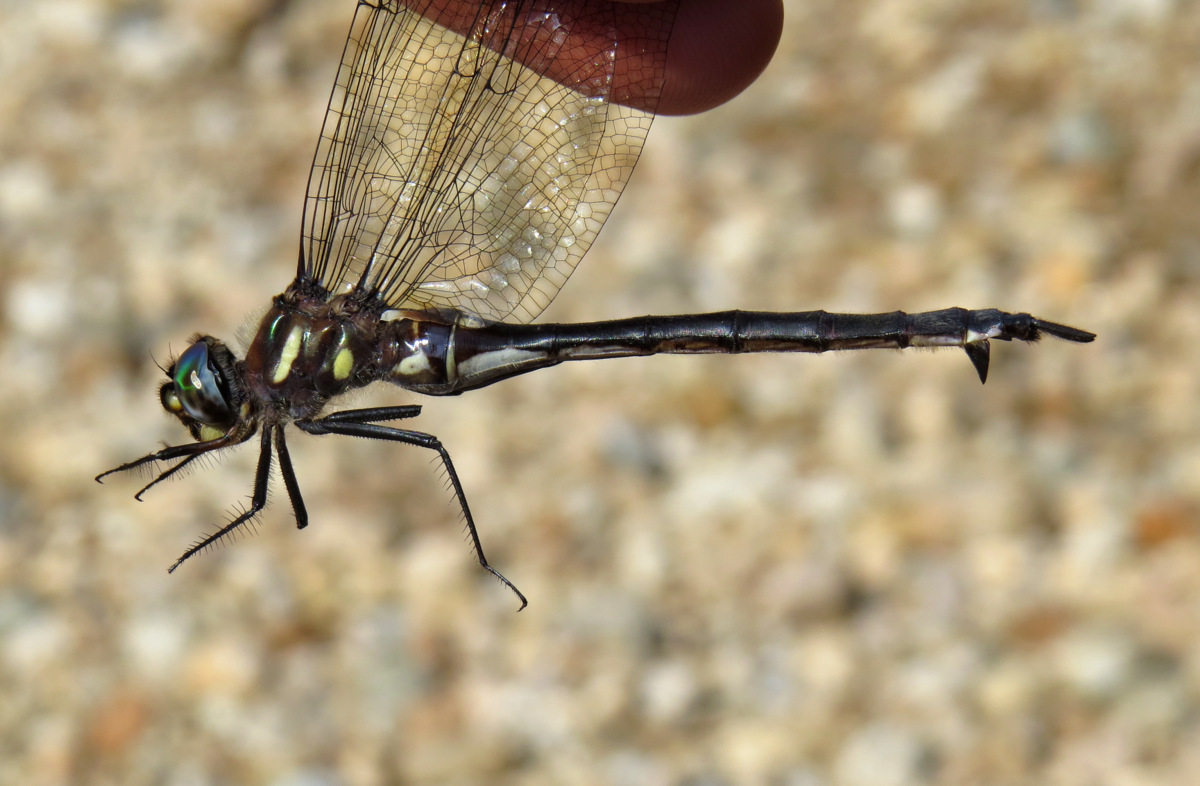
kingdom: Animalia
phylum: Arthropoda
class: Insecta
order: Odonata
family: Corduliidae
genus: Somatochlora
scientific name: Somatochlora elongata
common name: Ski-tipped emerald
